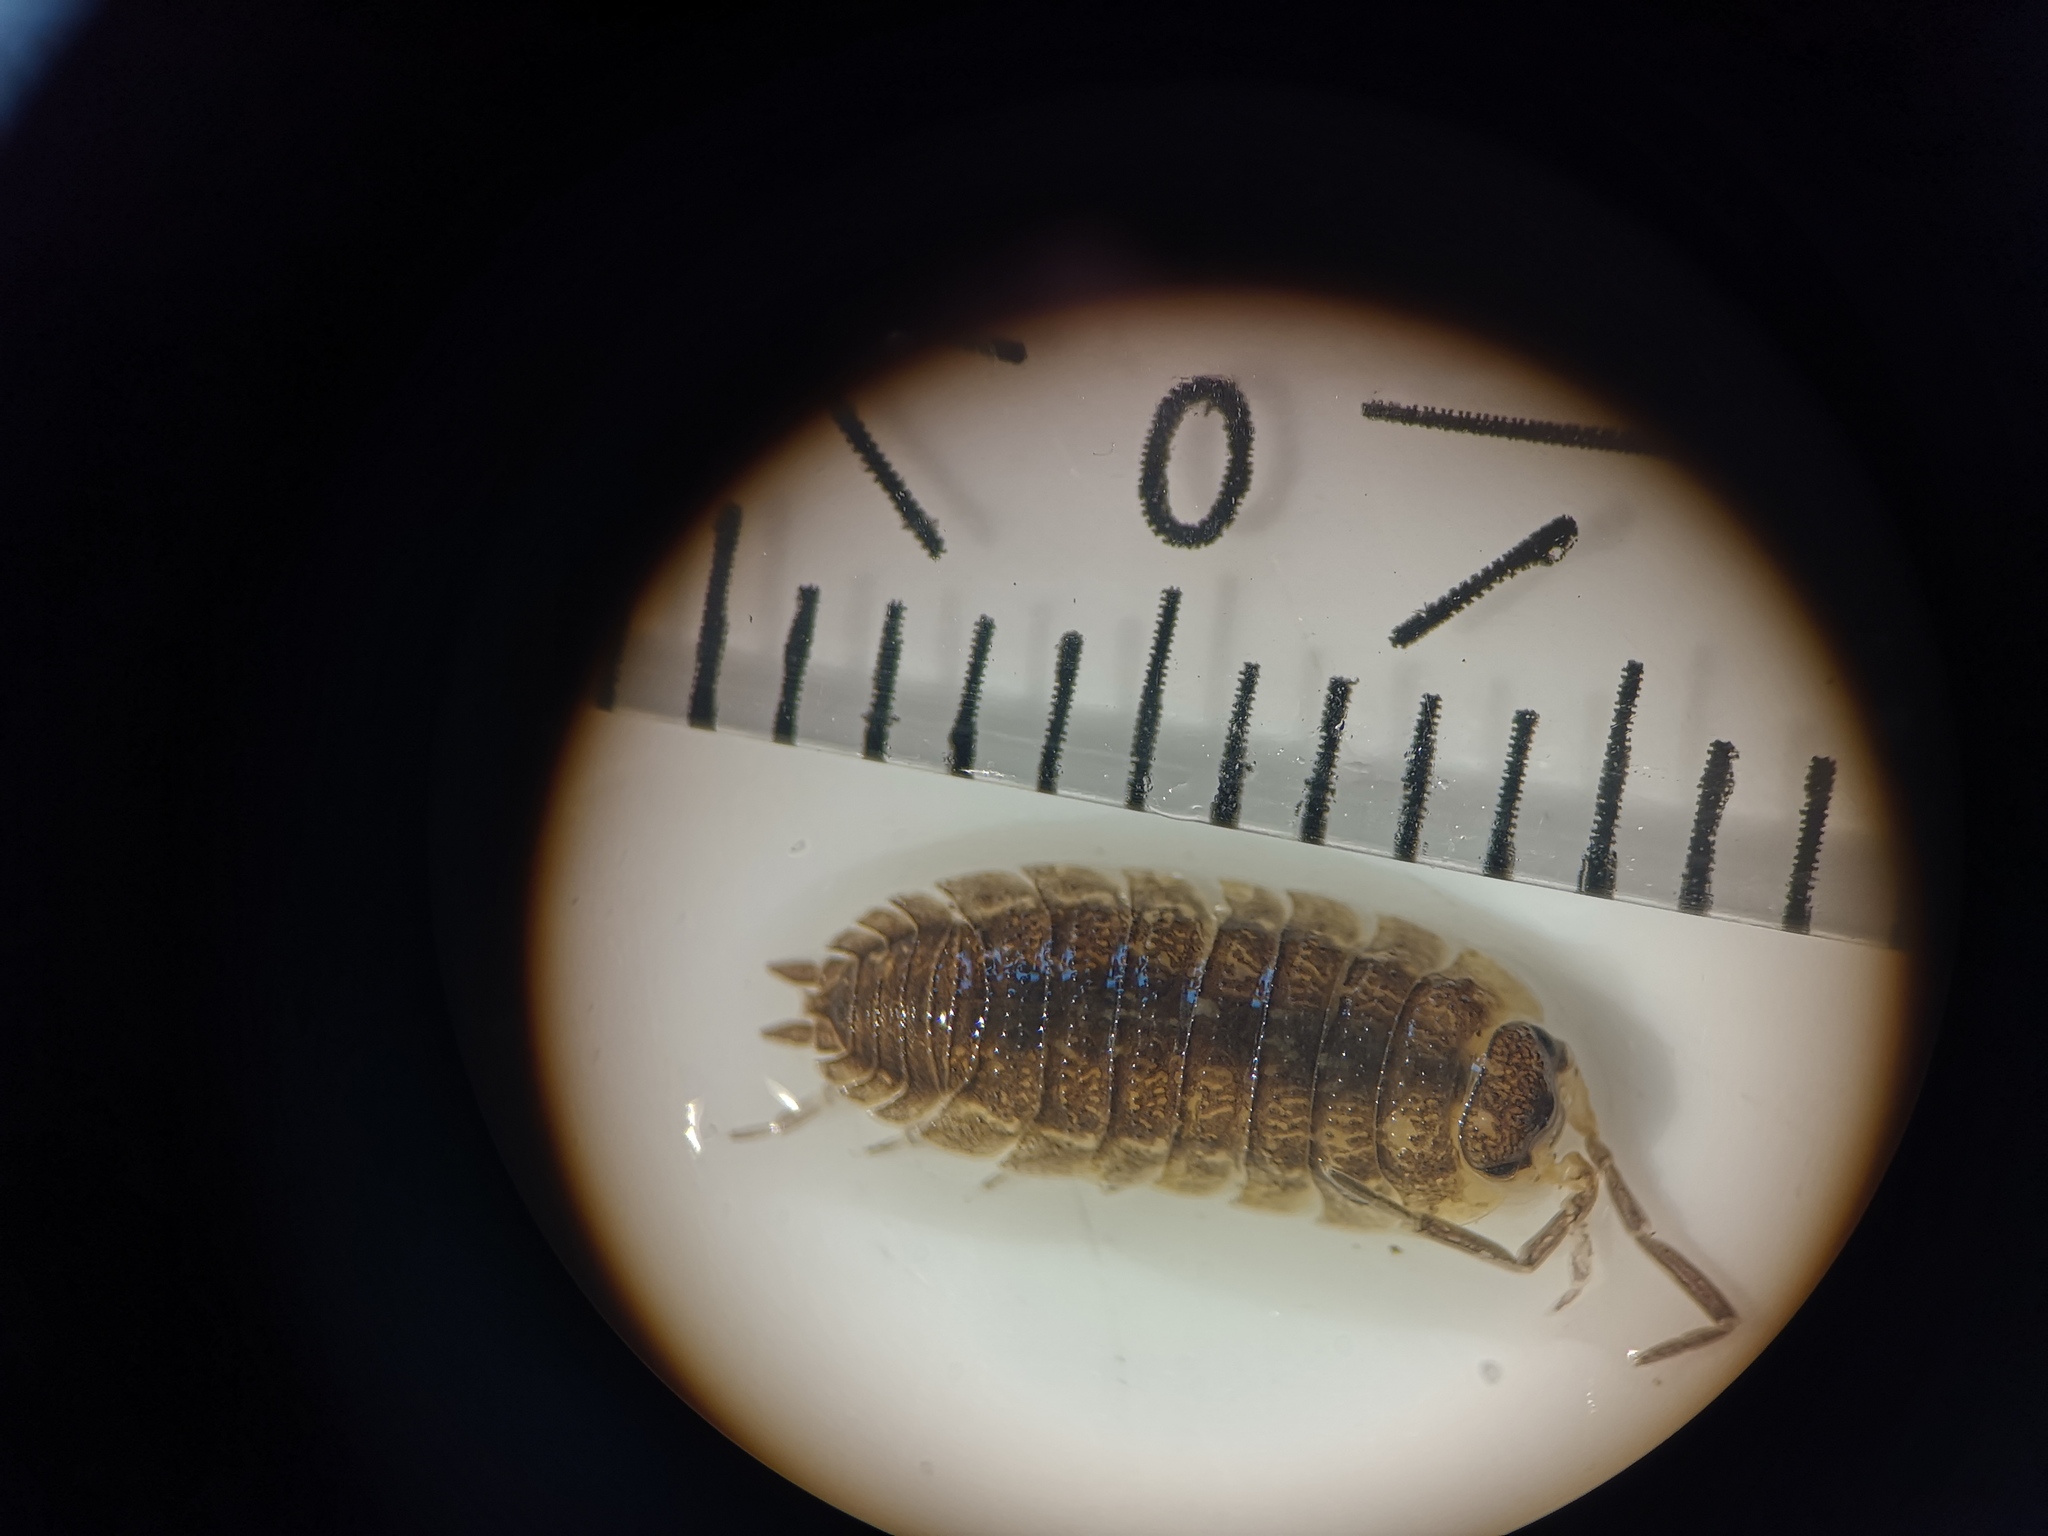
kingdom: Animalia
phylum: Arthropoda
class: Malacostraca
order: Isopoda
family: Porcellionidae
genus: Porcellio
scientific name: Porcellio scaber
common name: Common rough woodlouse
